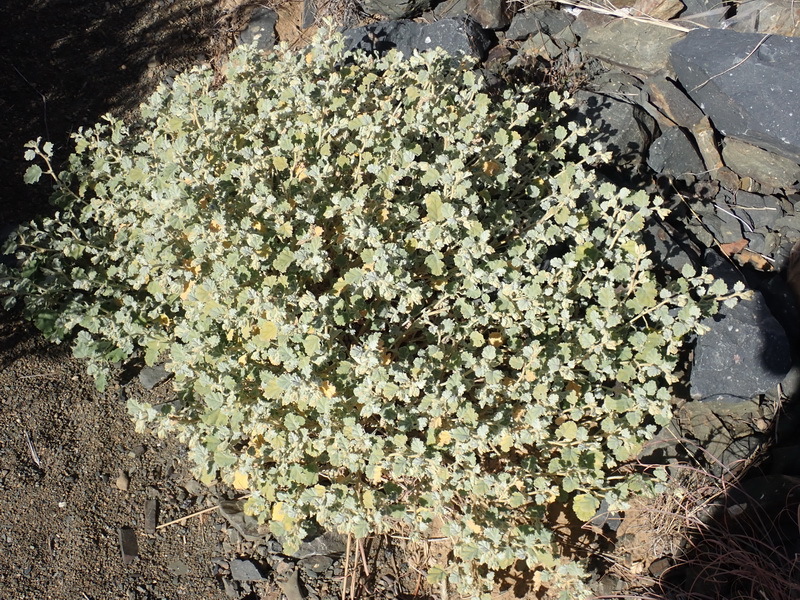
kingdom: Plantae
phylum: Tracheophyta
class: Magnoliopsida
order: Malvales
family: Malvaceae
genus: Hermannia
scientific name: Hermannia vestita
